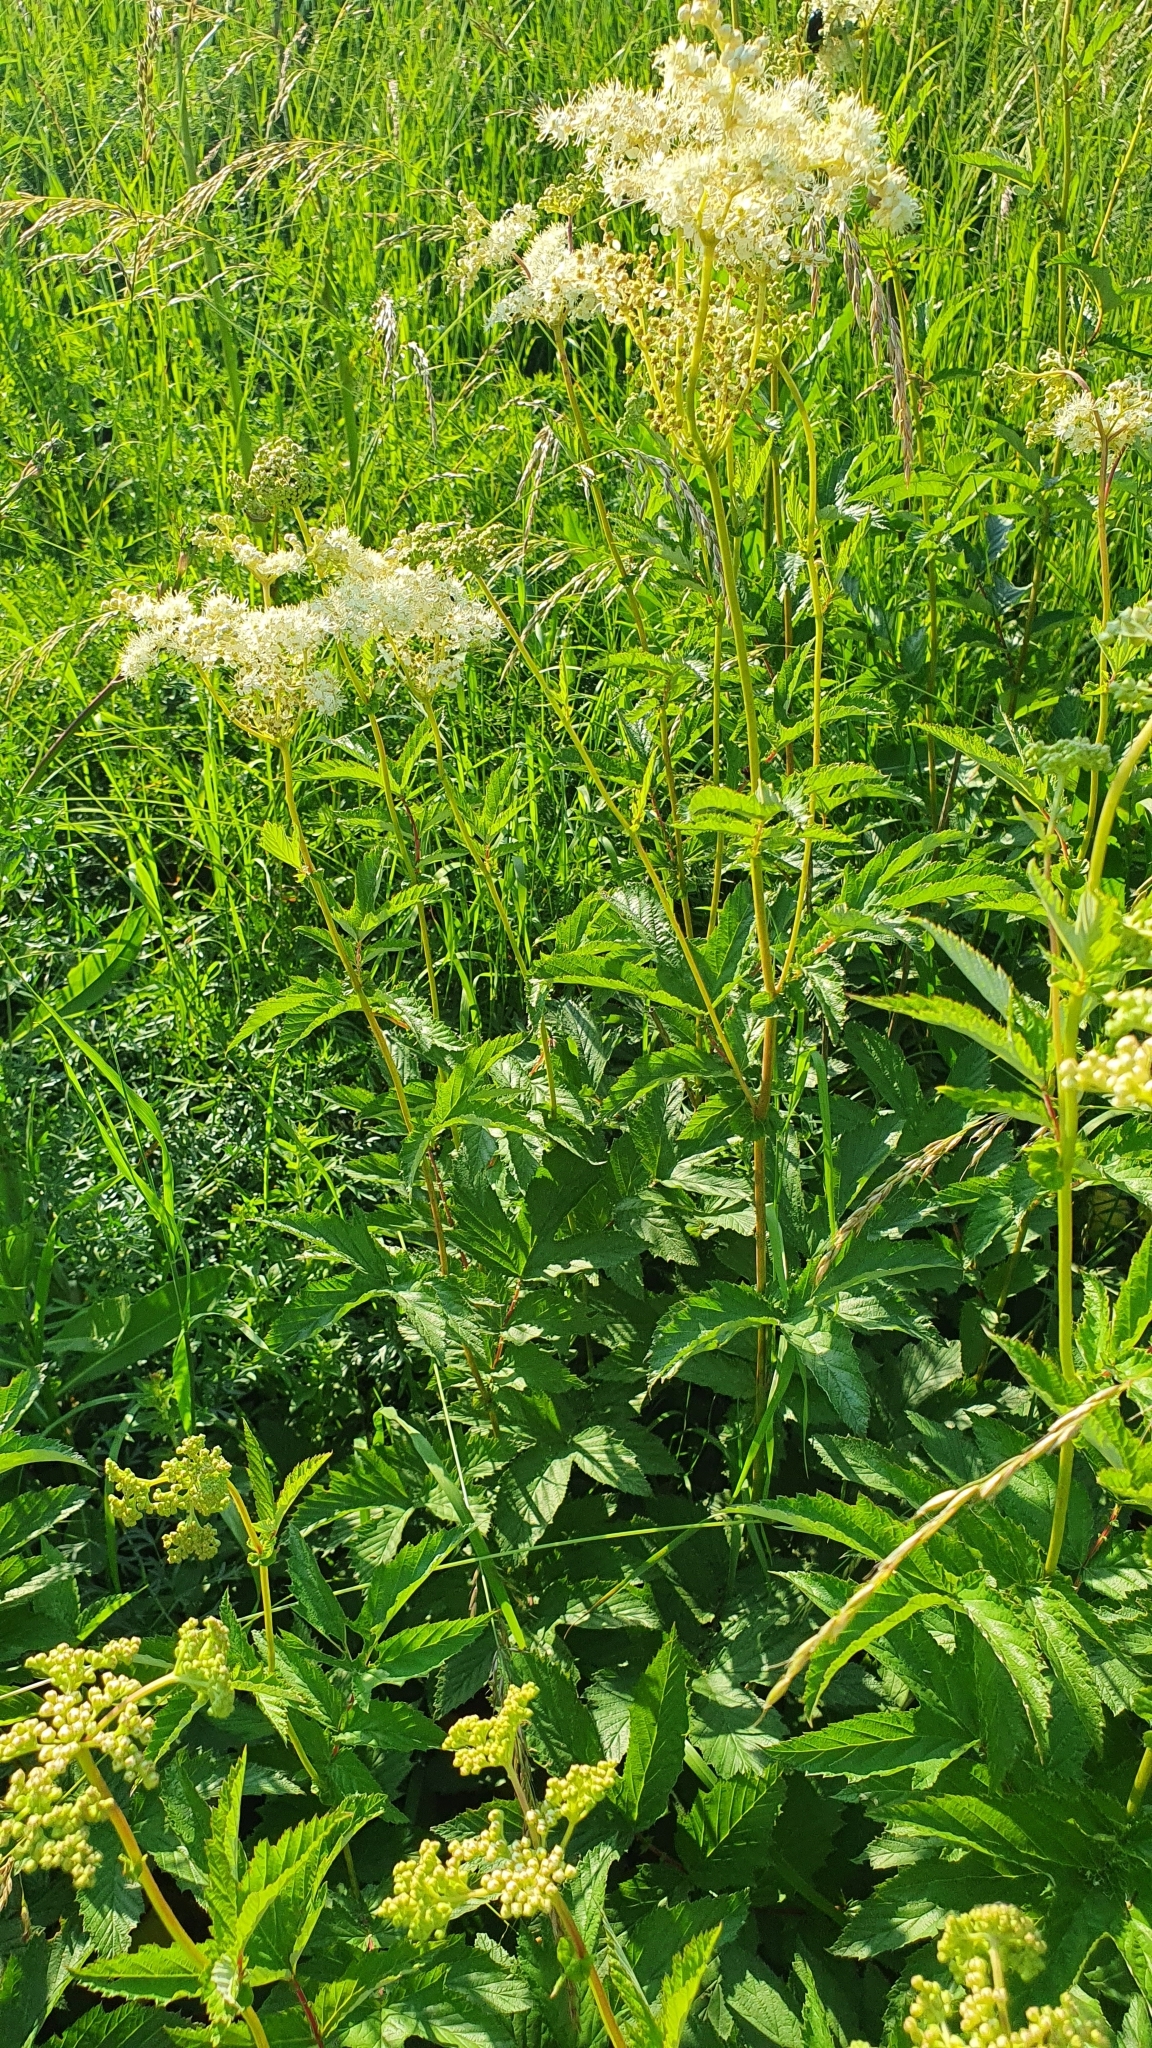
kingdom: Plantae
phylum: Tracheophyta
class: Magnoliopsida
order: Rosales
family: Rosaceae
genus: Filipendula
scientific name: Filipendula ulmaria
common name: Meadowsweet
